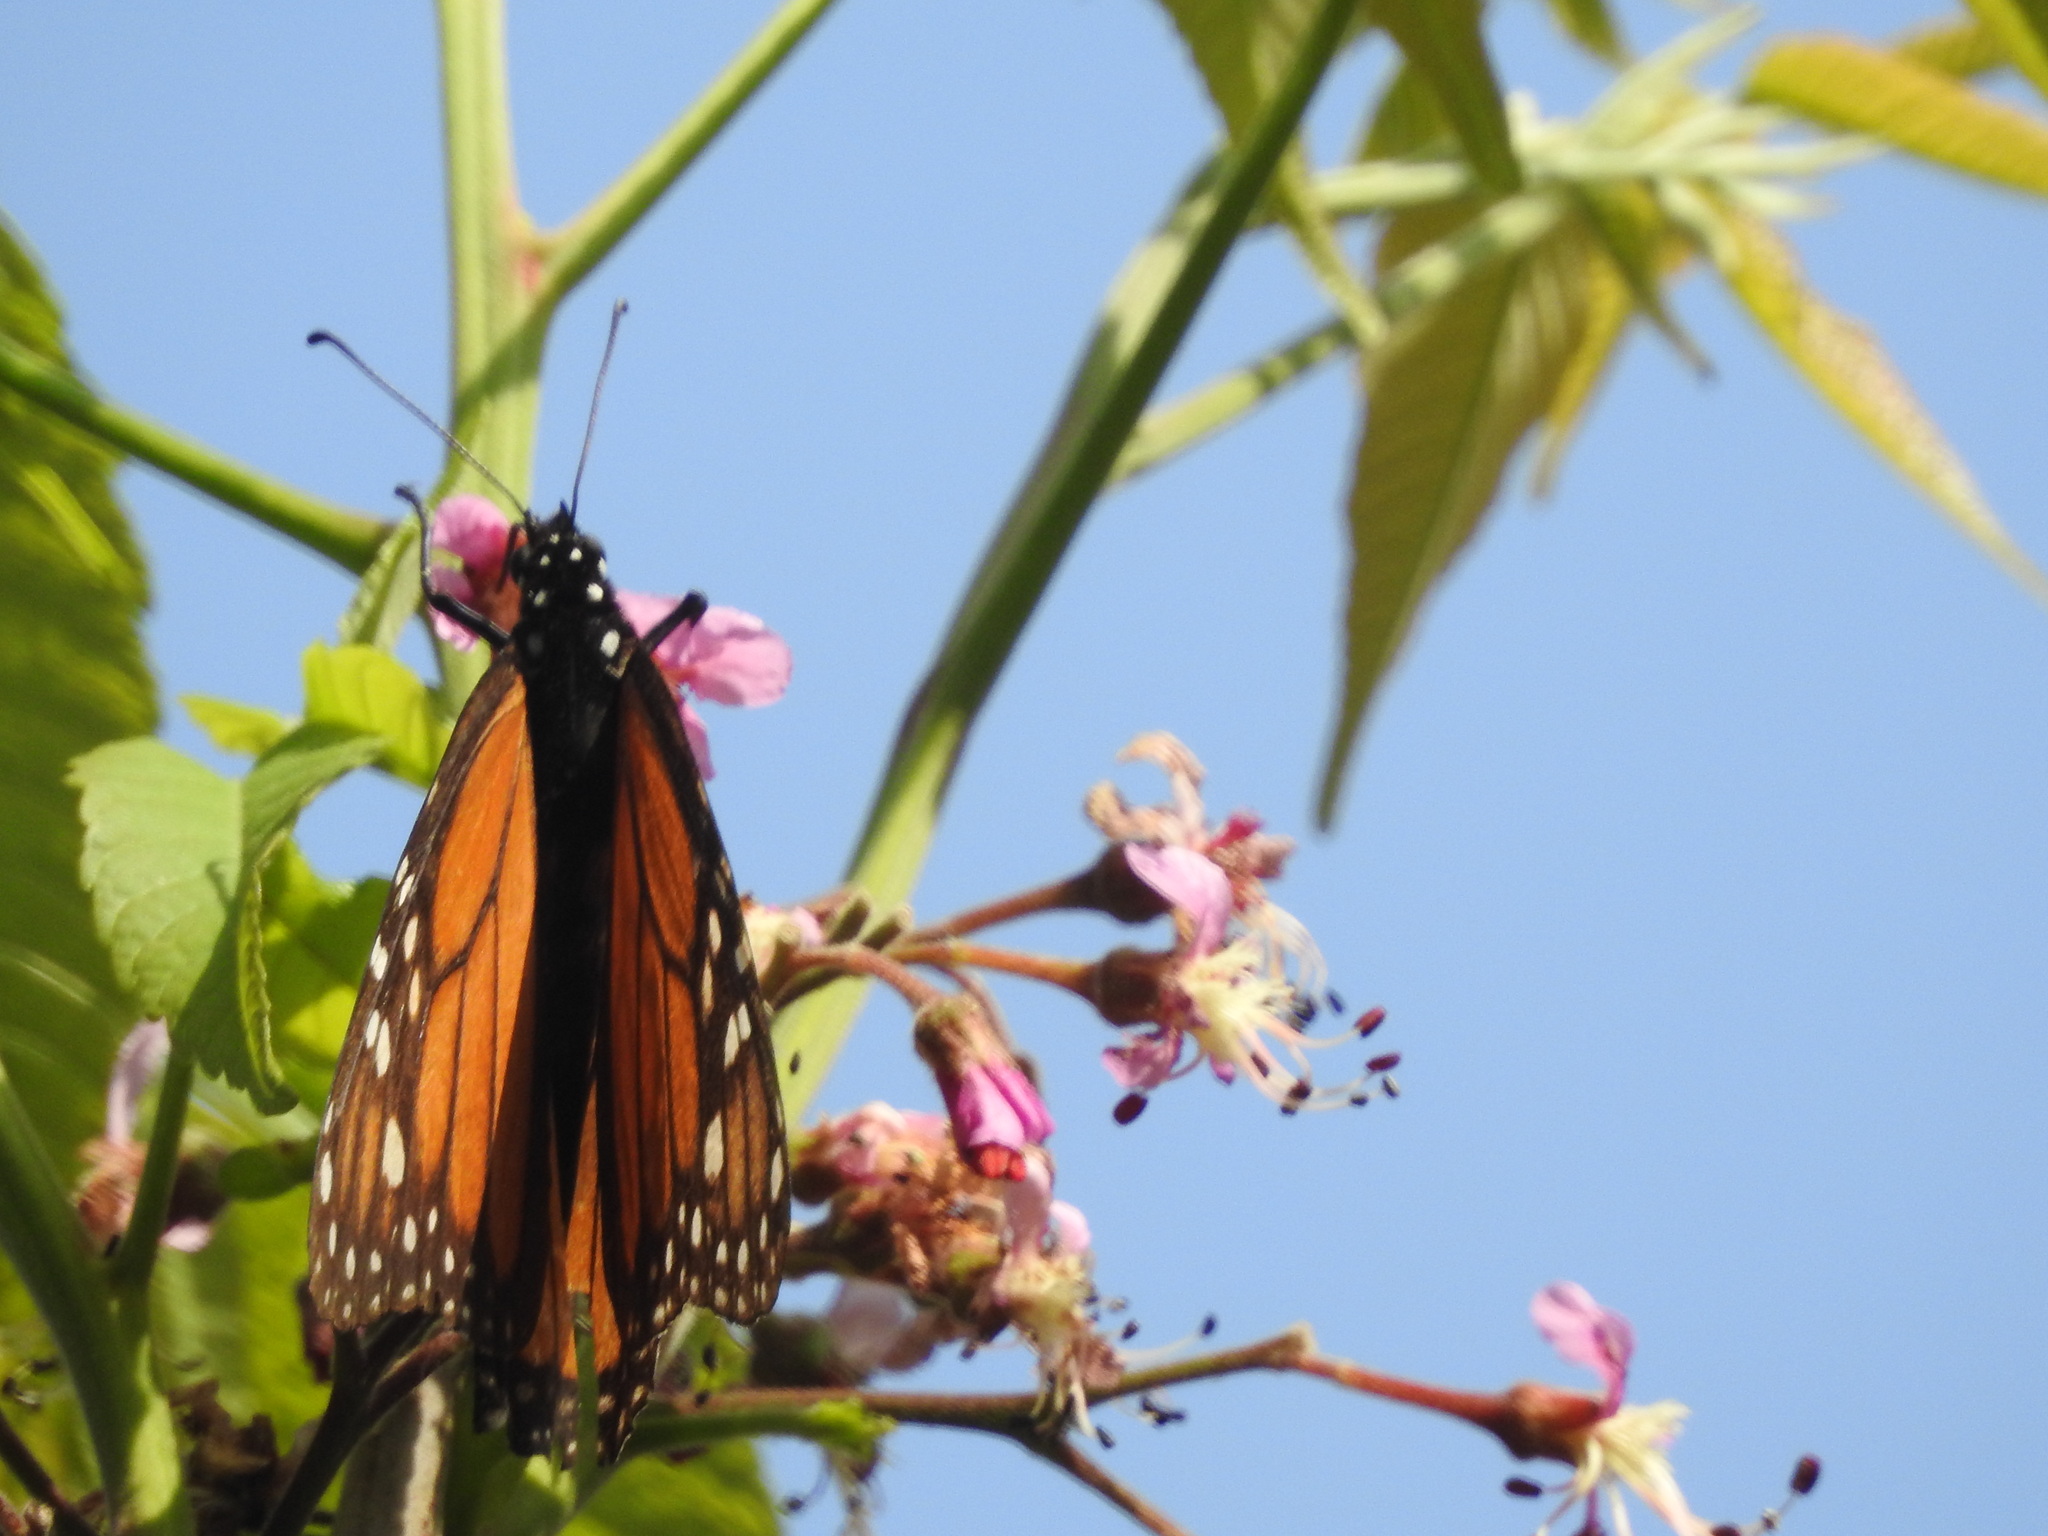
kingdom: Animalia
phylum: Arthropoda
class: Insecta
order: Lepidoptera
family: Nymphalidae
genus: Danaus
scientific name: Danaus plexippus
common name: Monarch
